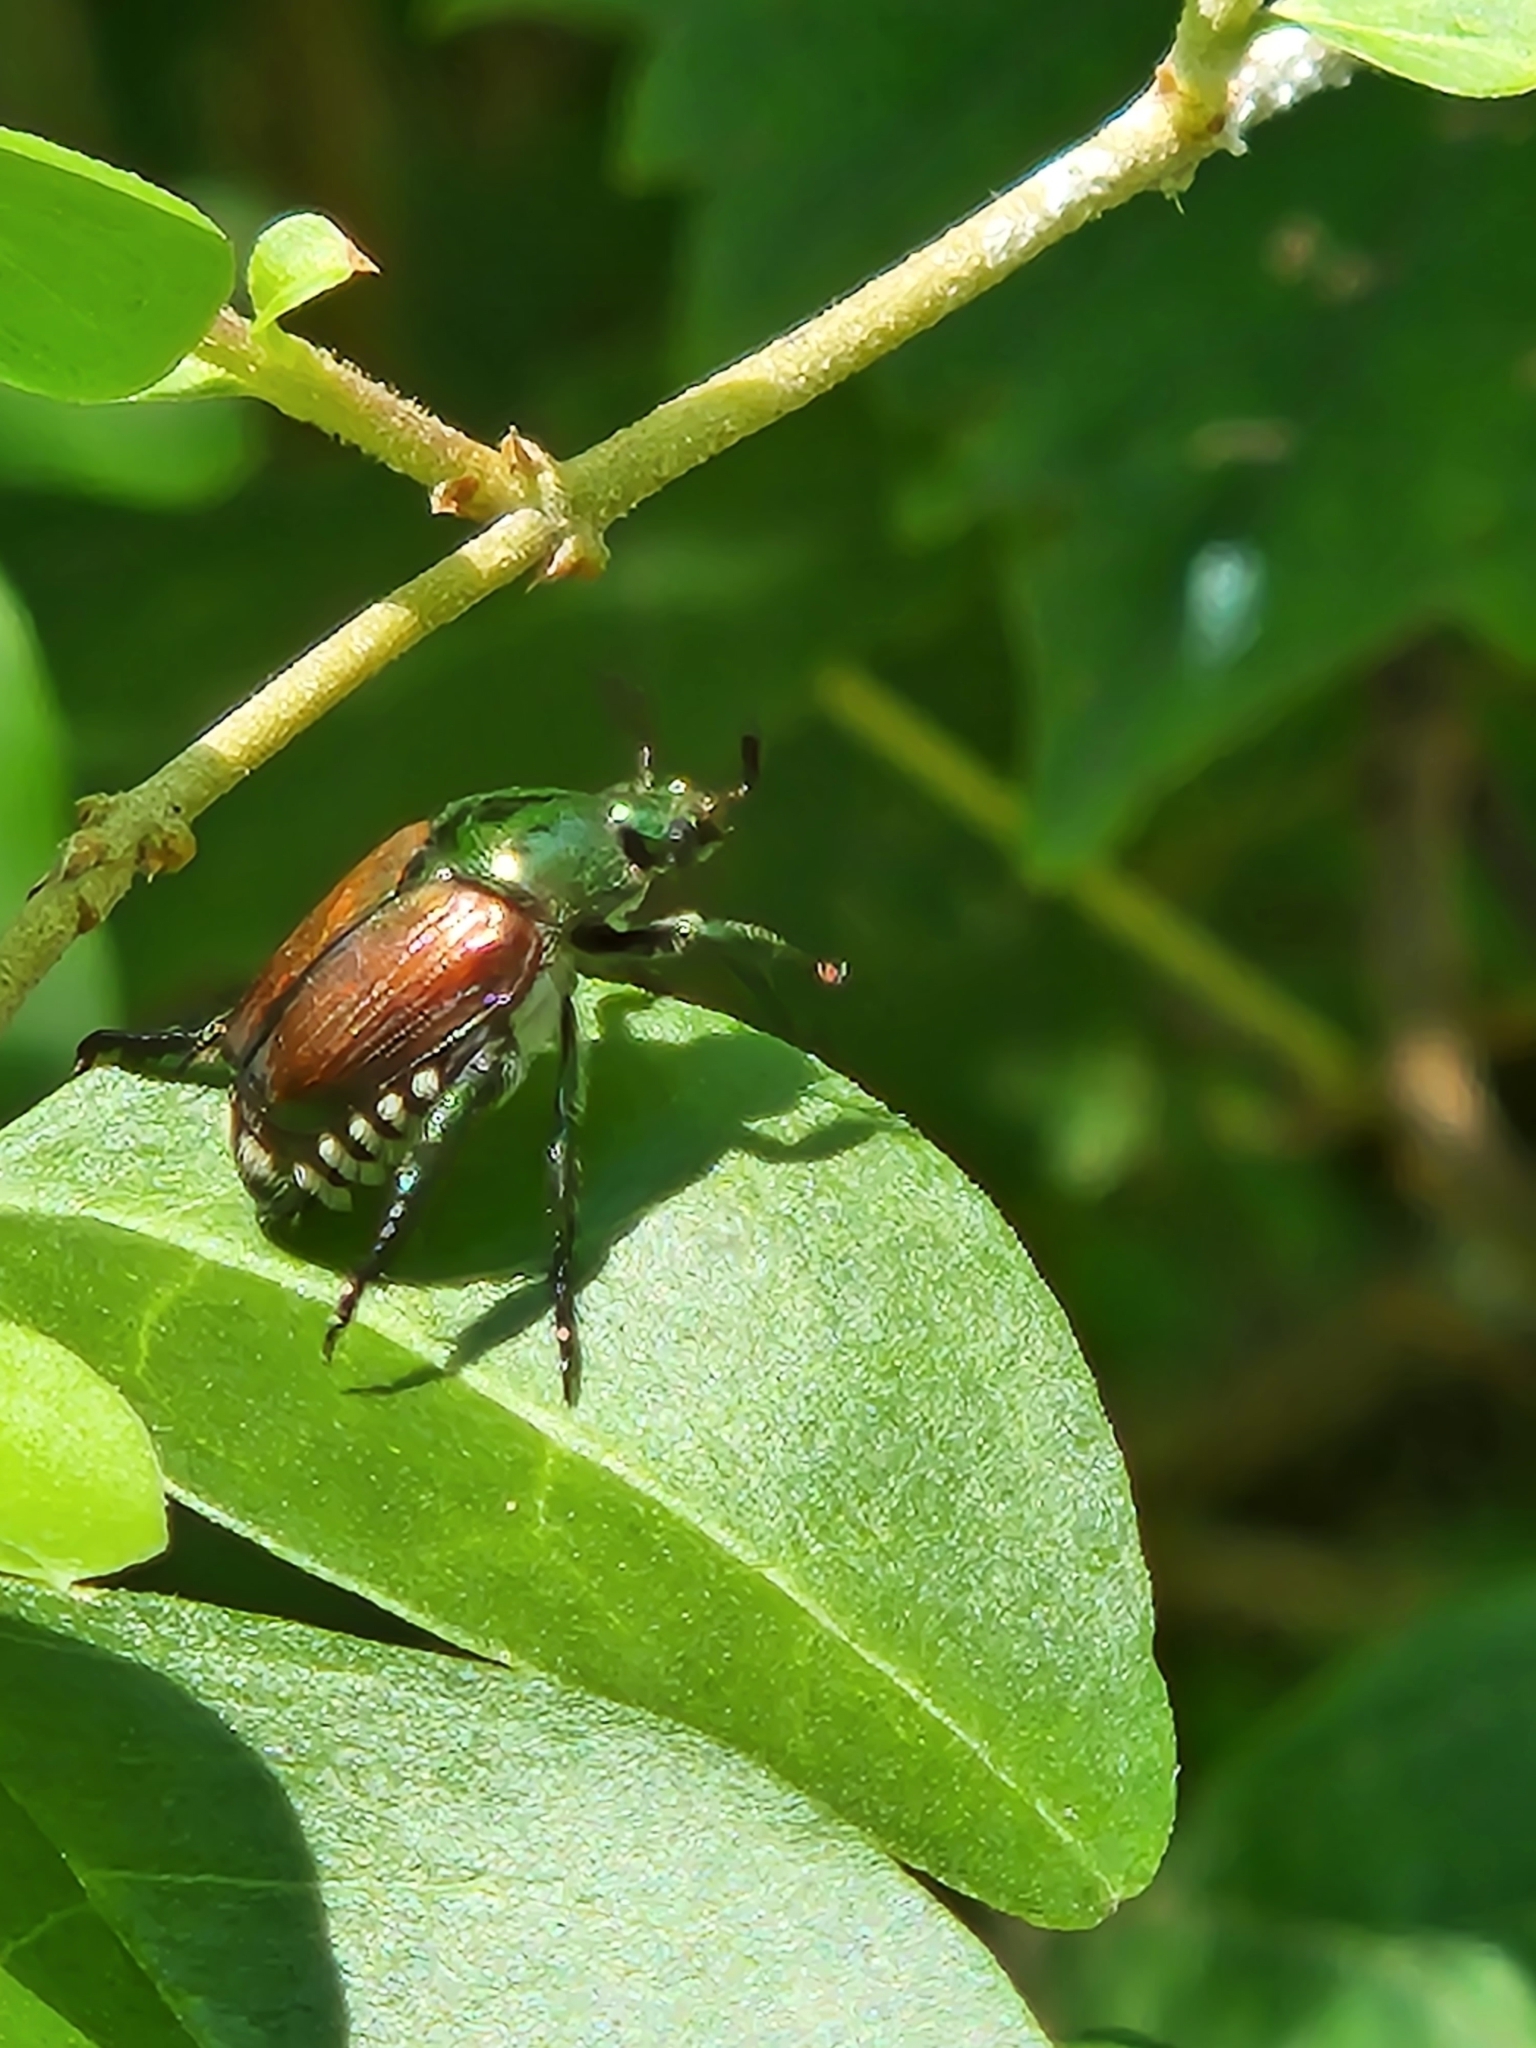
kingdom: Animalia
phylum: Arthropoda
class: Insecta
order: Coleoptera
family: Scarabaeidae
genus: Popillia
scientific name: Popillia japonica
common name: Japanese beetle
